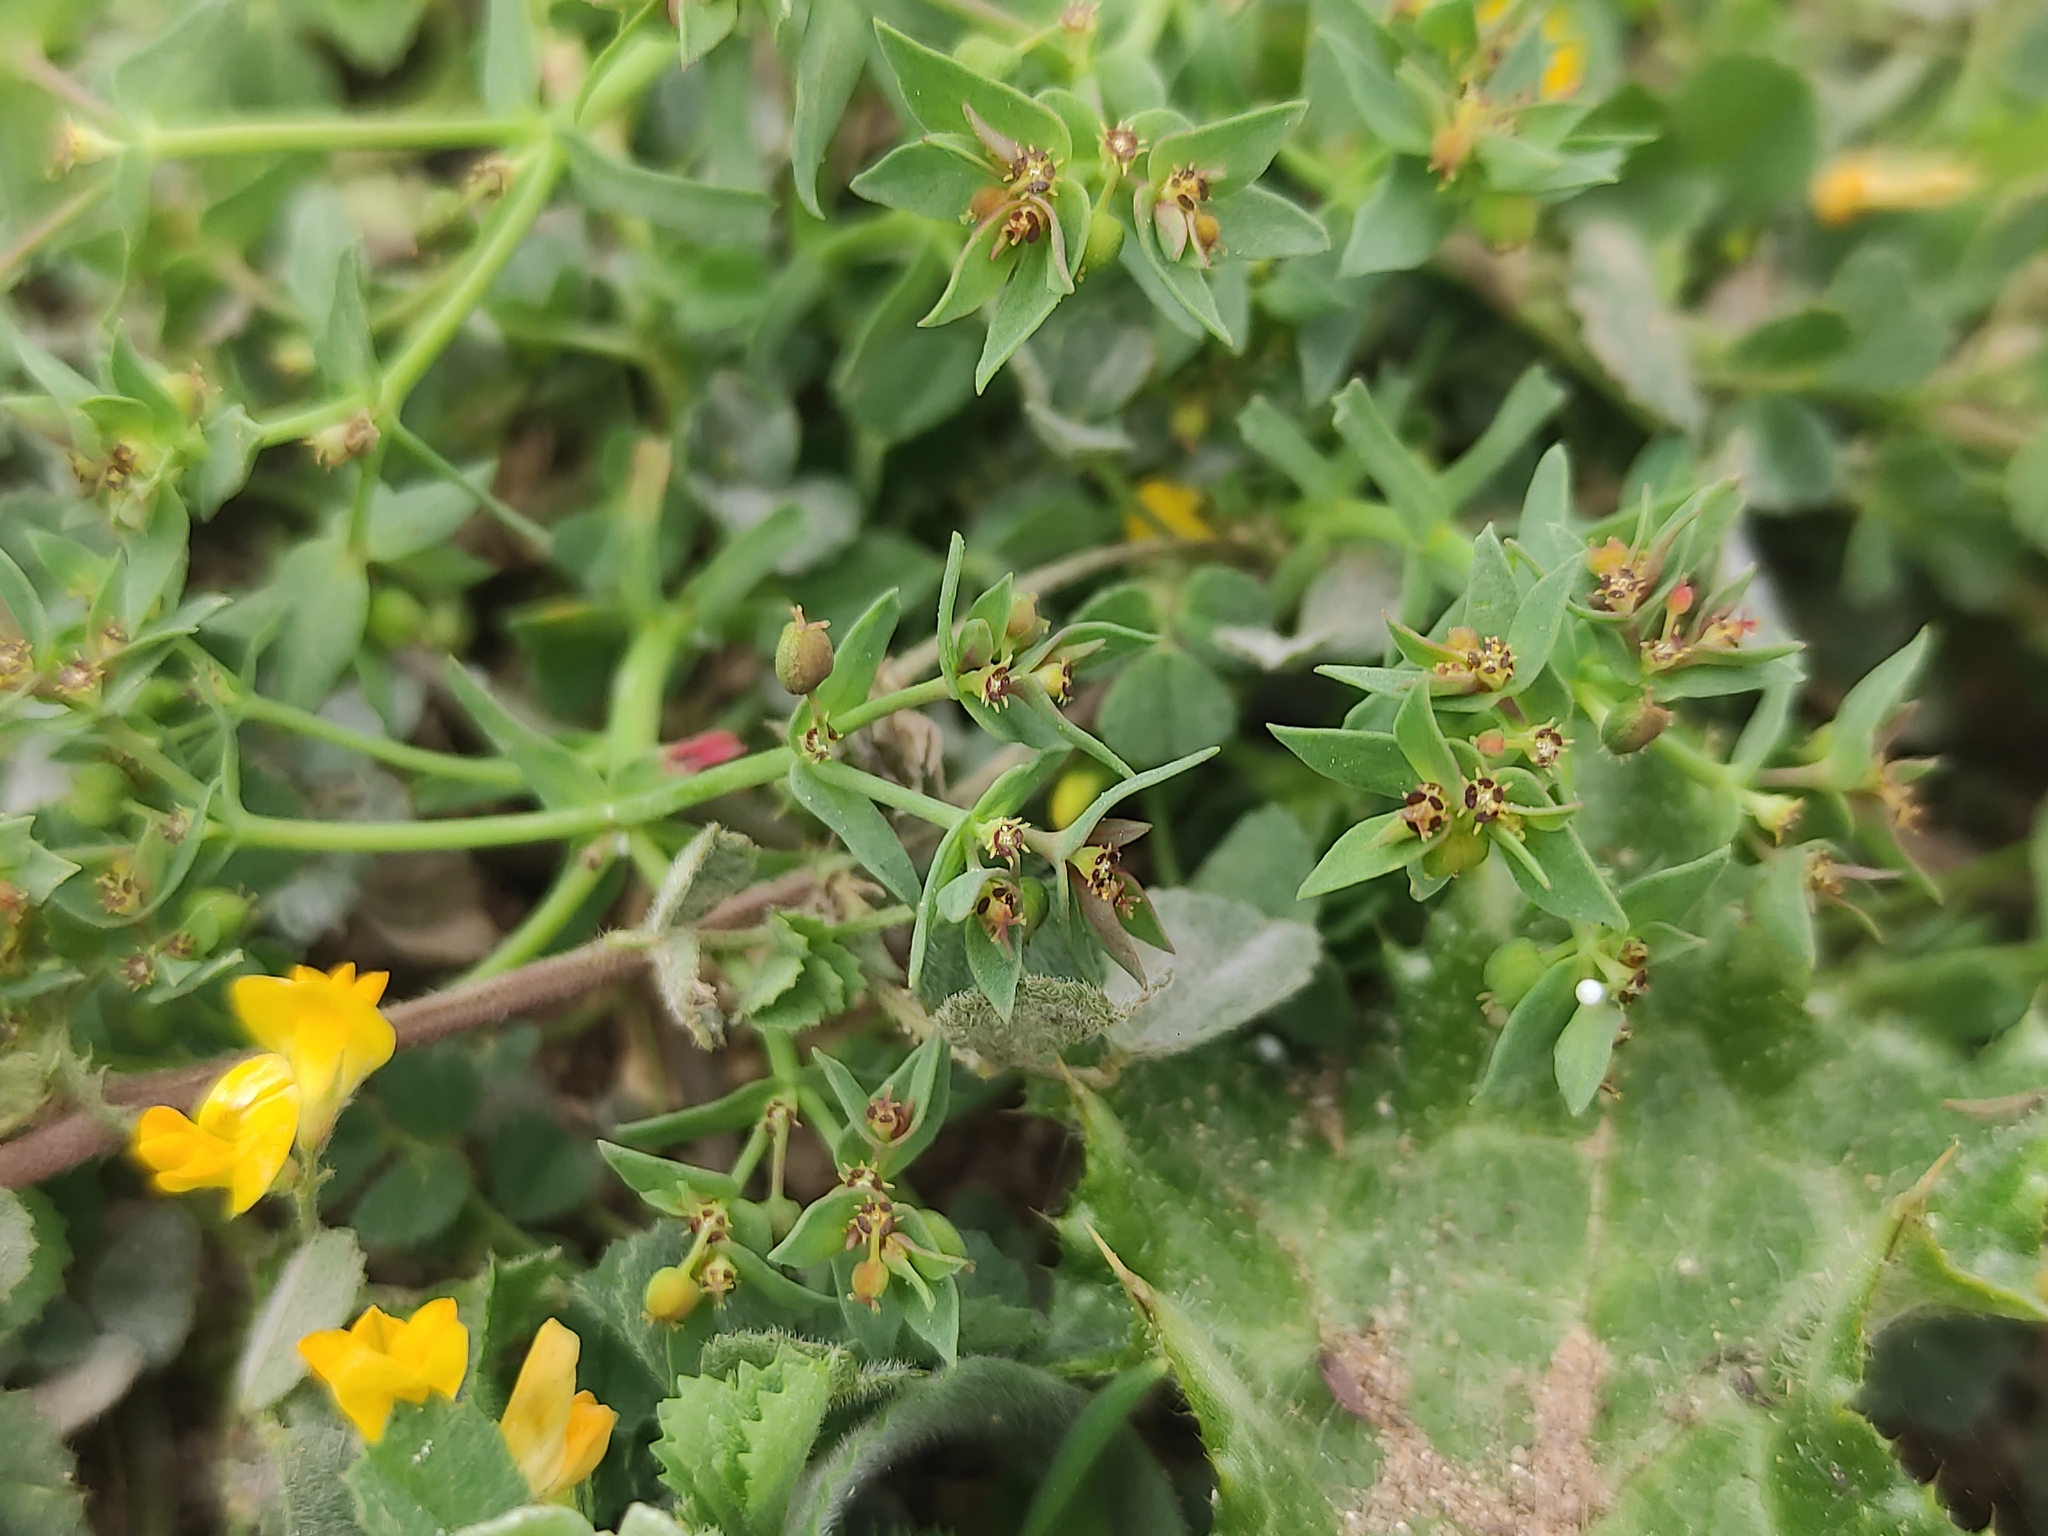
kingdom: Plantae
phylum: Tracheophyta
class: Magnoliopsida
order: Malpighiales
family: Euphorbiaceae
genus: Euphorbia
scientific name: Euphorbia exigua
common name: Dwarf spurge
